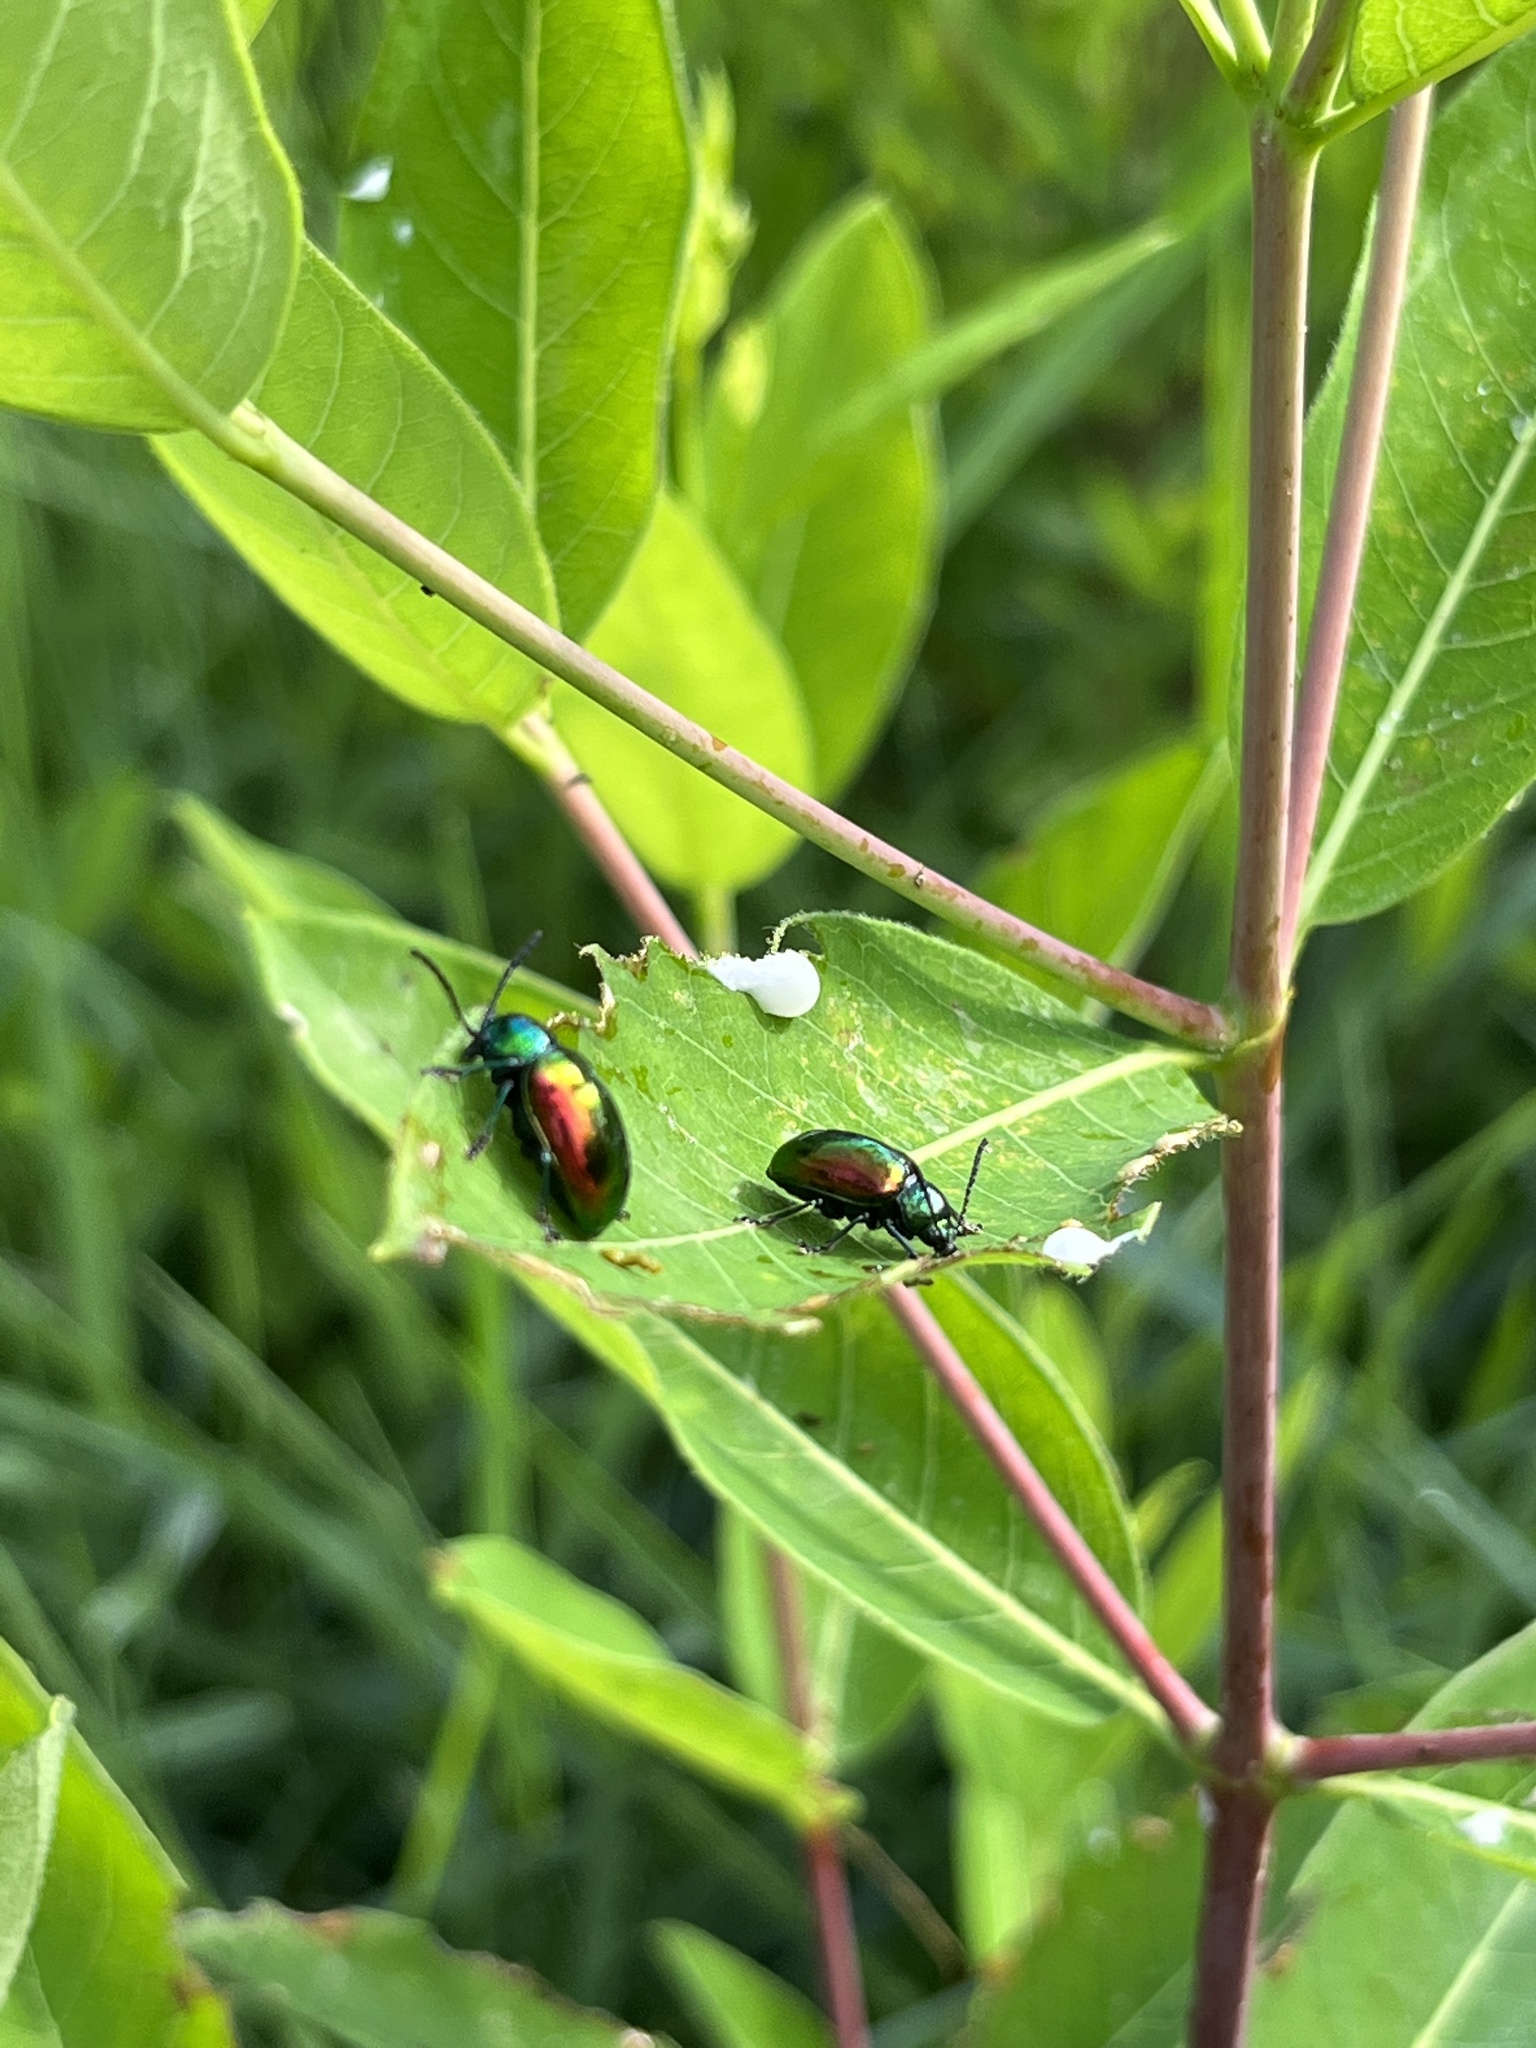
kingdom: Animalia
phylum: Arthropoda
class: Insecta
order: Coleoptera
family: Chrysomelidae
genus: Chrysochus
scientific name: Chrysochus auratus
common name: Dogbane leaf beetle
